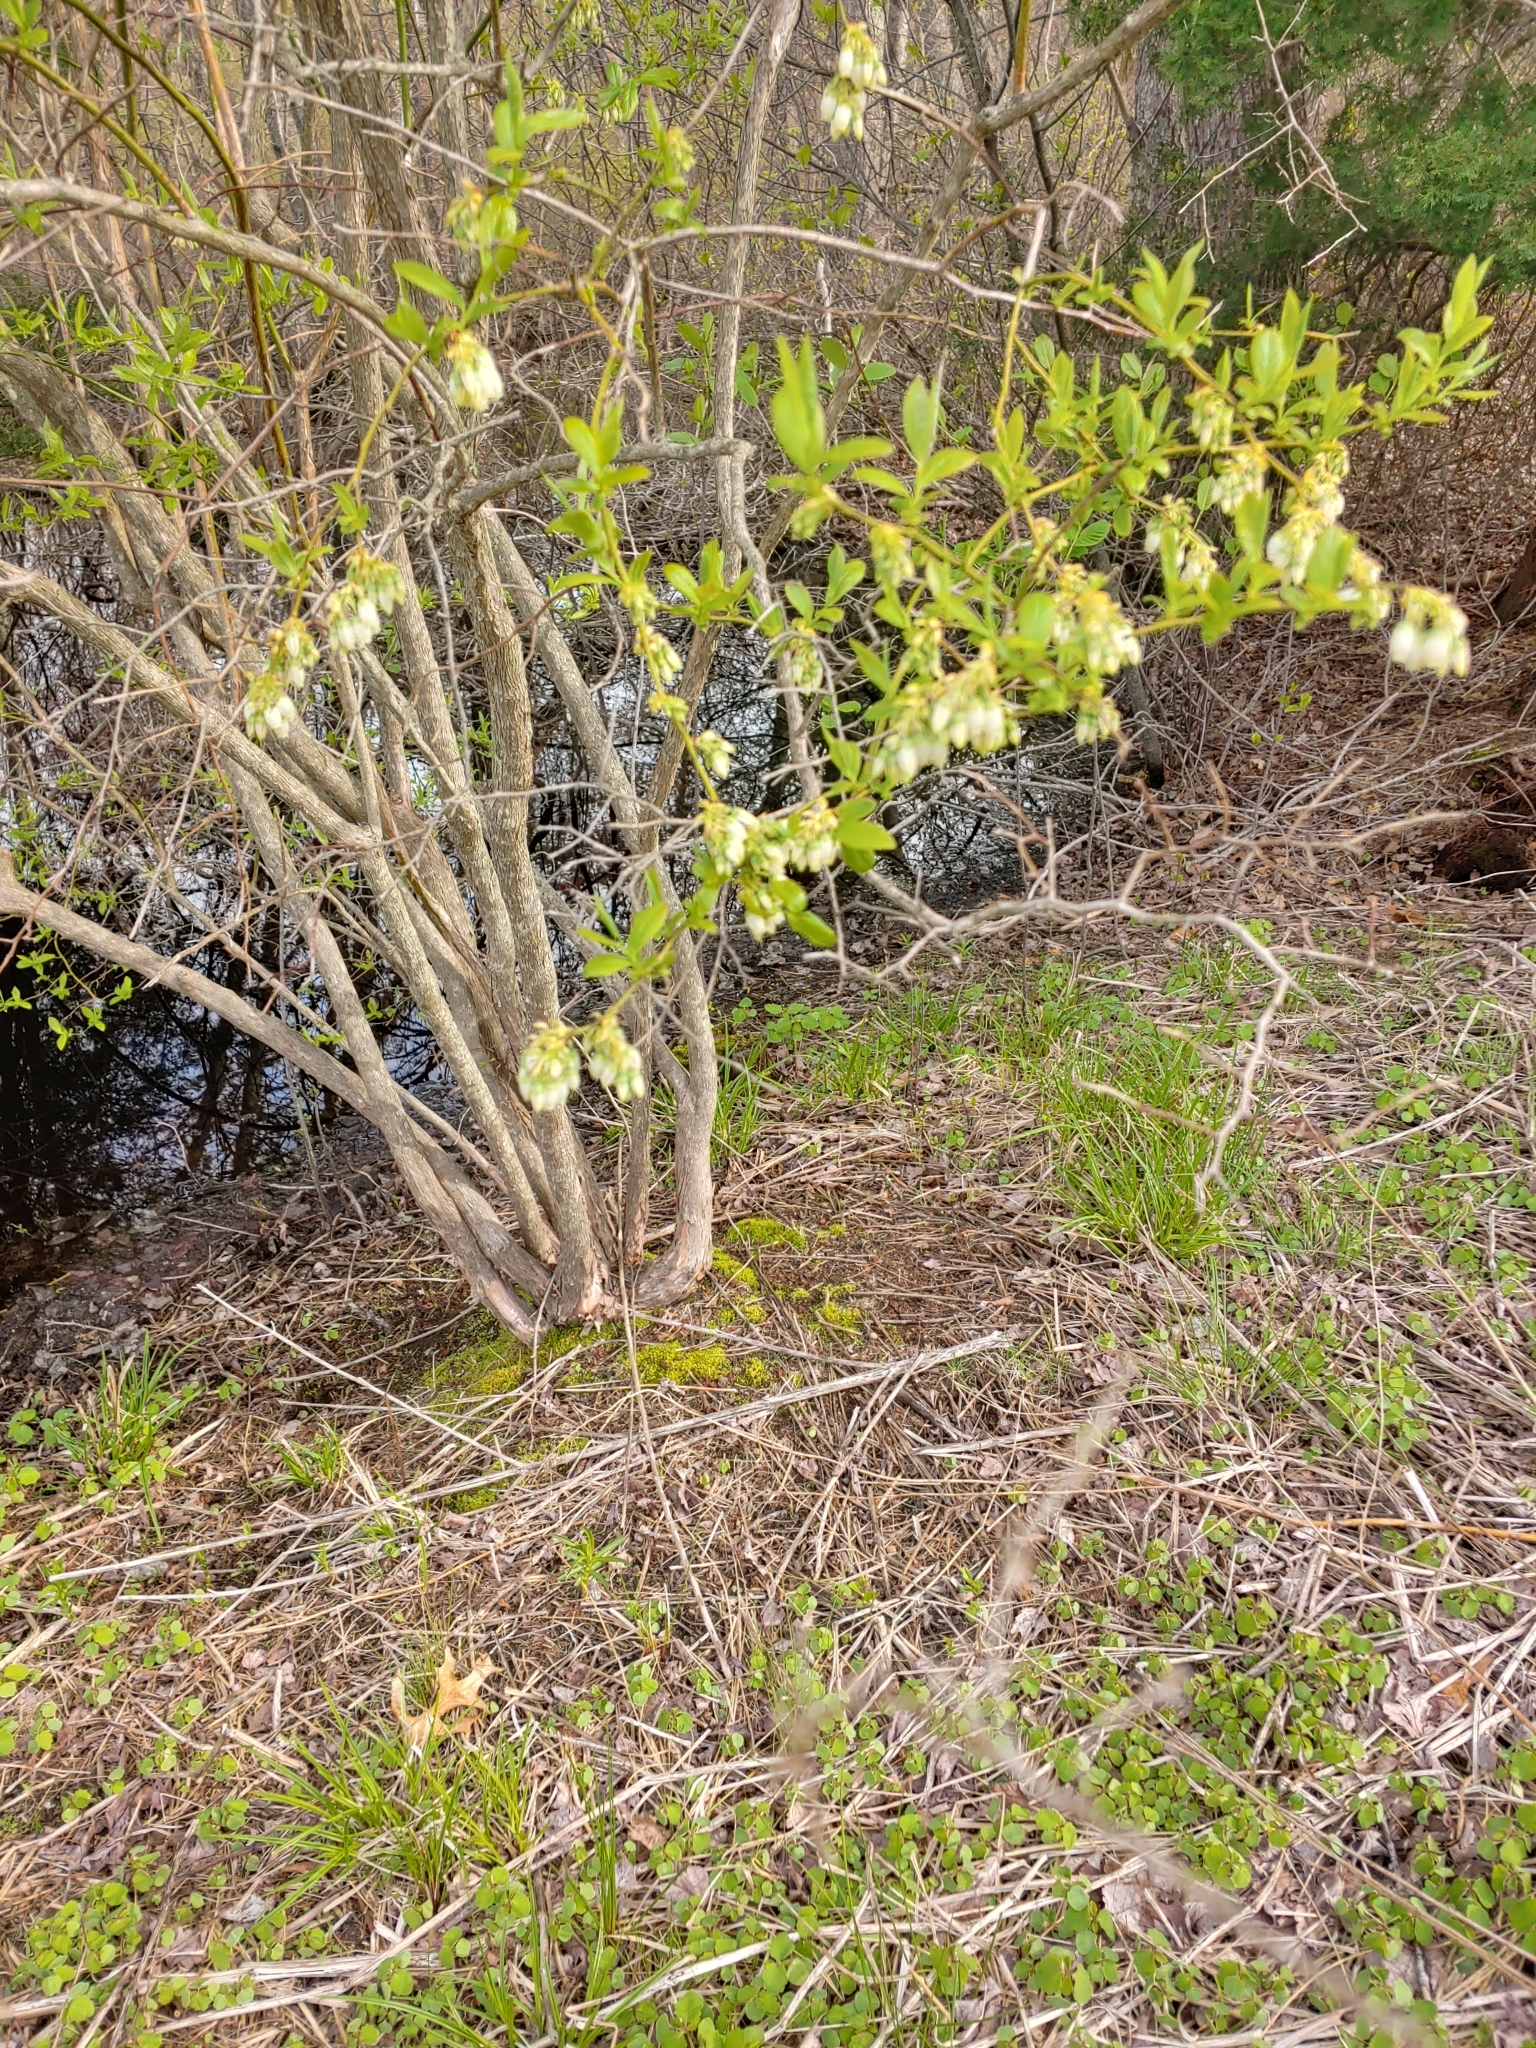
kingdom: Plantae
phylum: Tracheophyta
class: Magnoliopsida
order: Ericales
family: Ericaceae
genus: Vaccinium
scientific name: Vaccinium corymbosum
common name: Blueberry
